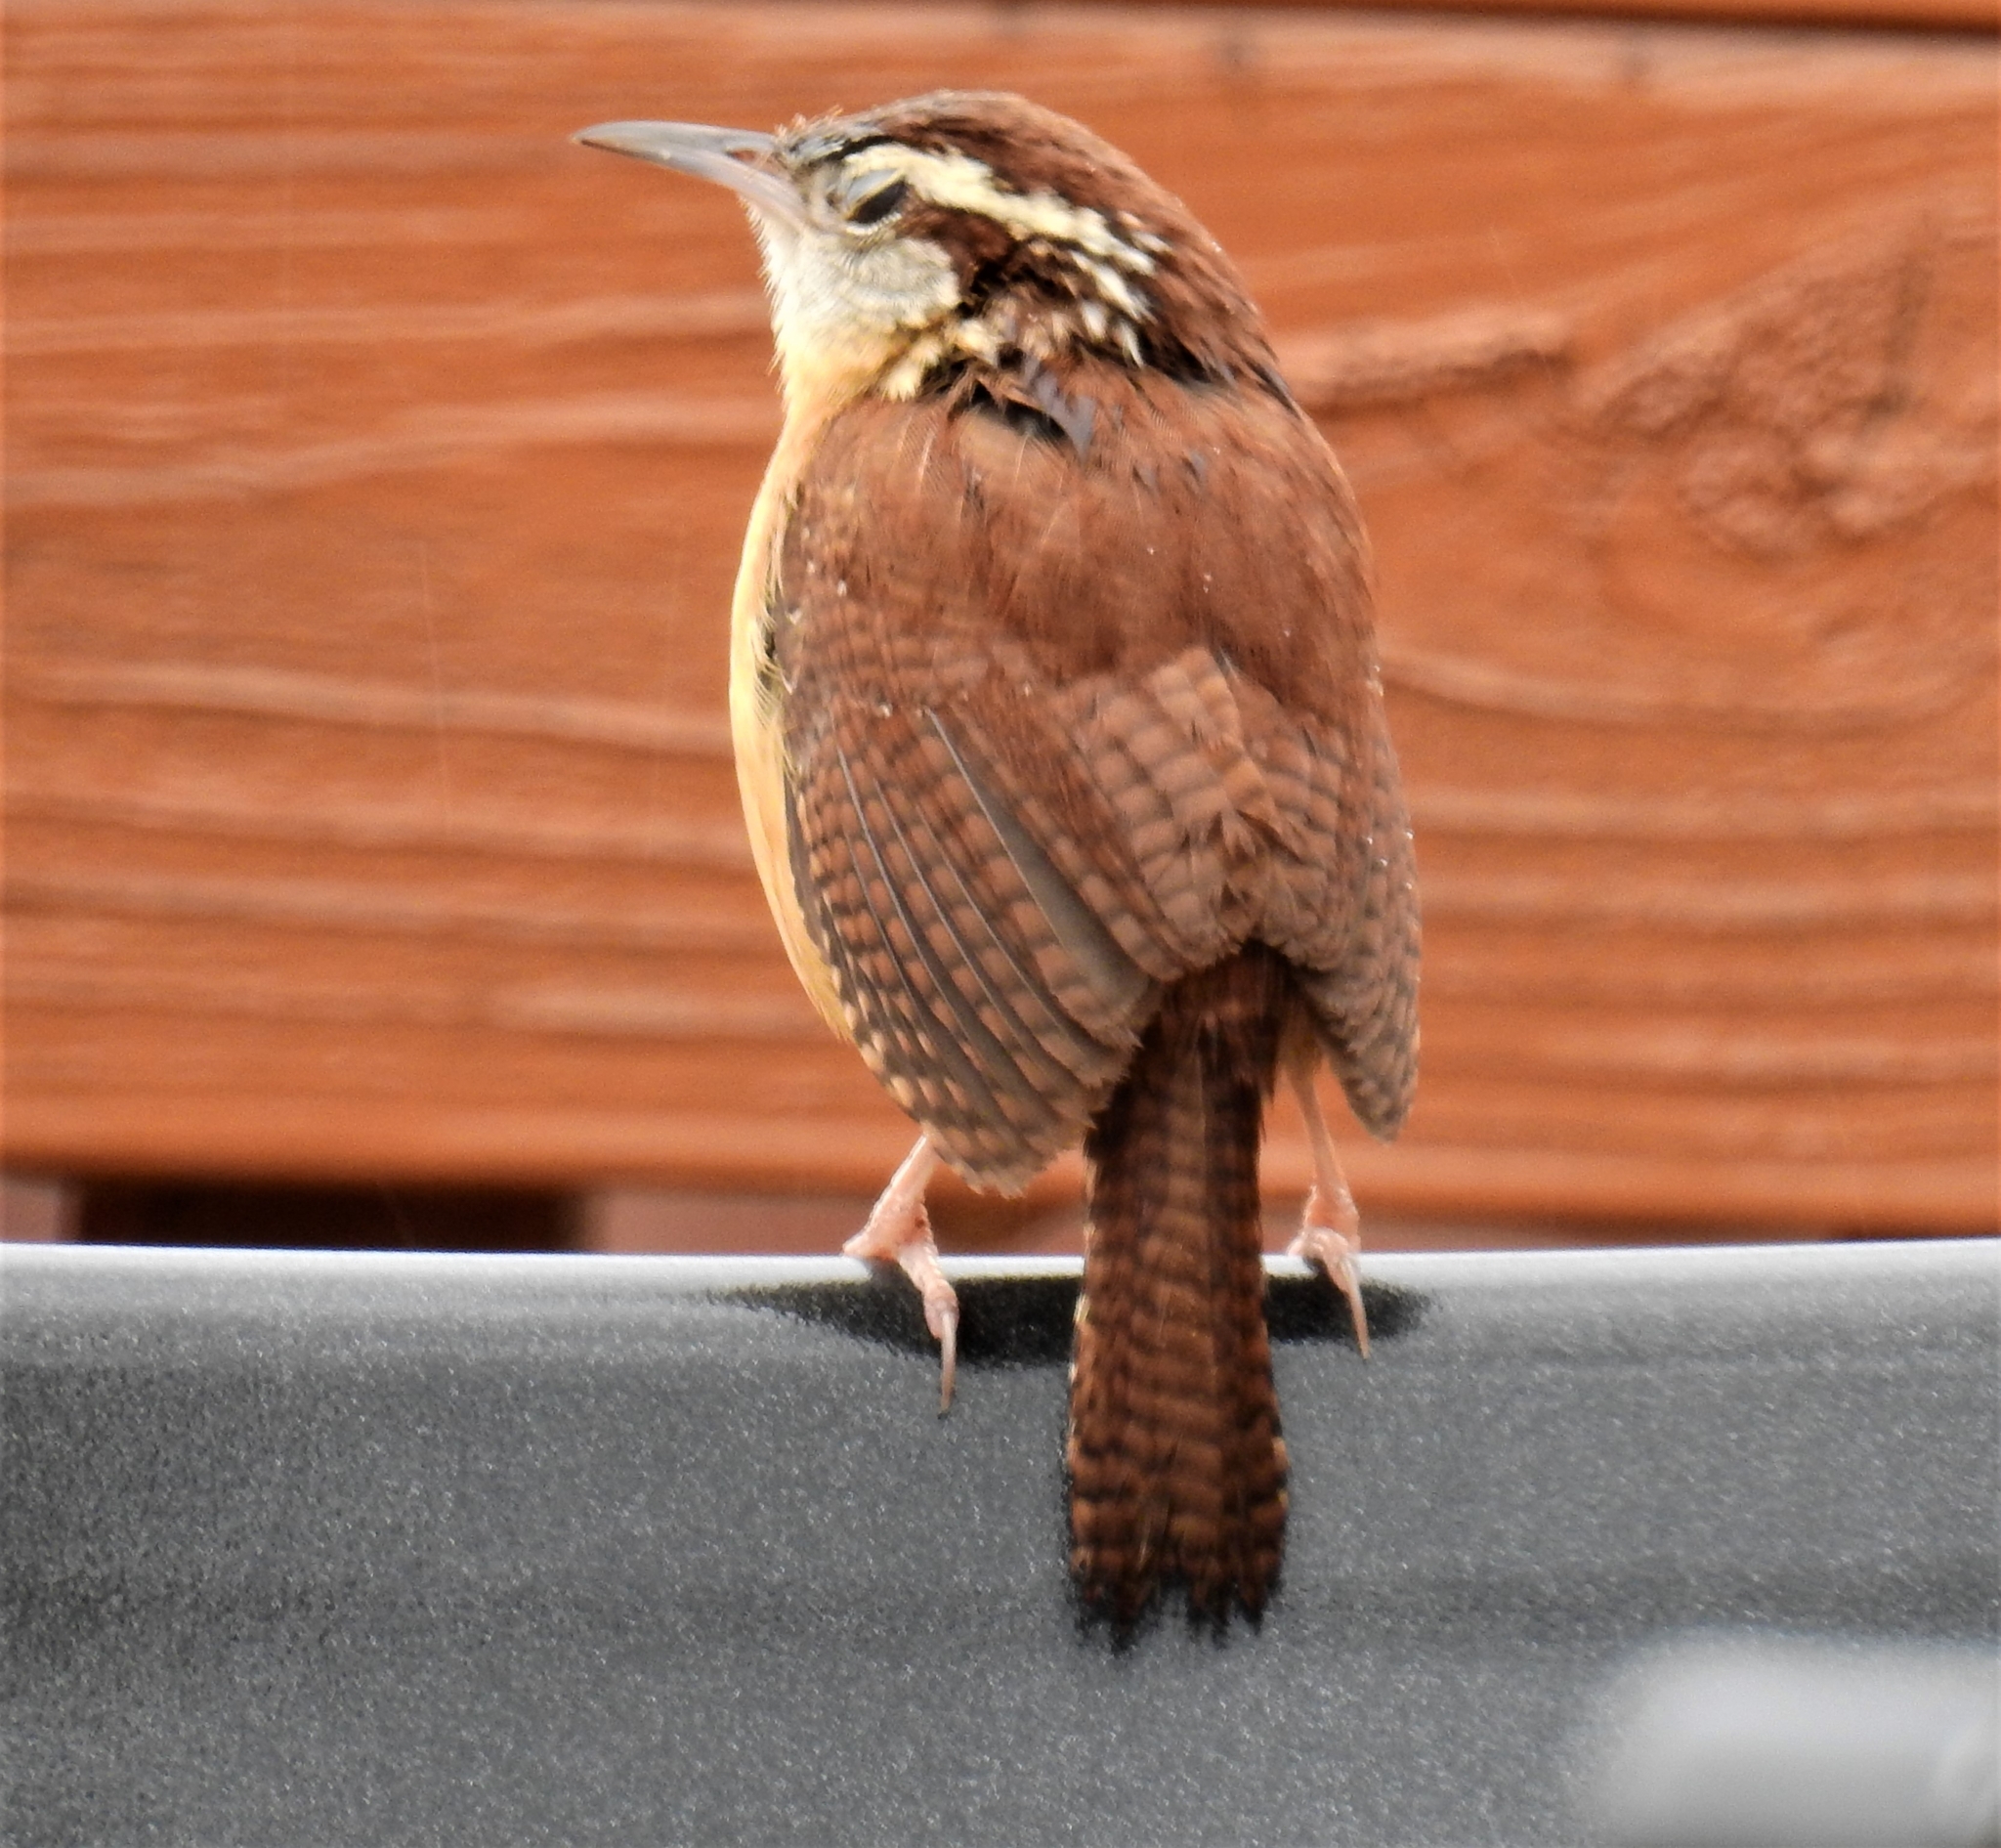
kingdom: Animalia
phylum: Chordata
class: Aves
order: Passeriformes
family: Troglodytidae
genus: Thryothorus
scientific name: Thryothorus ludovicianus
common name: Carolina wren
